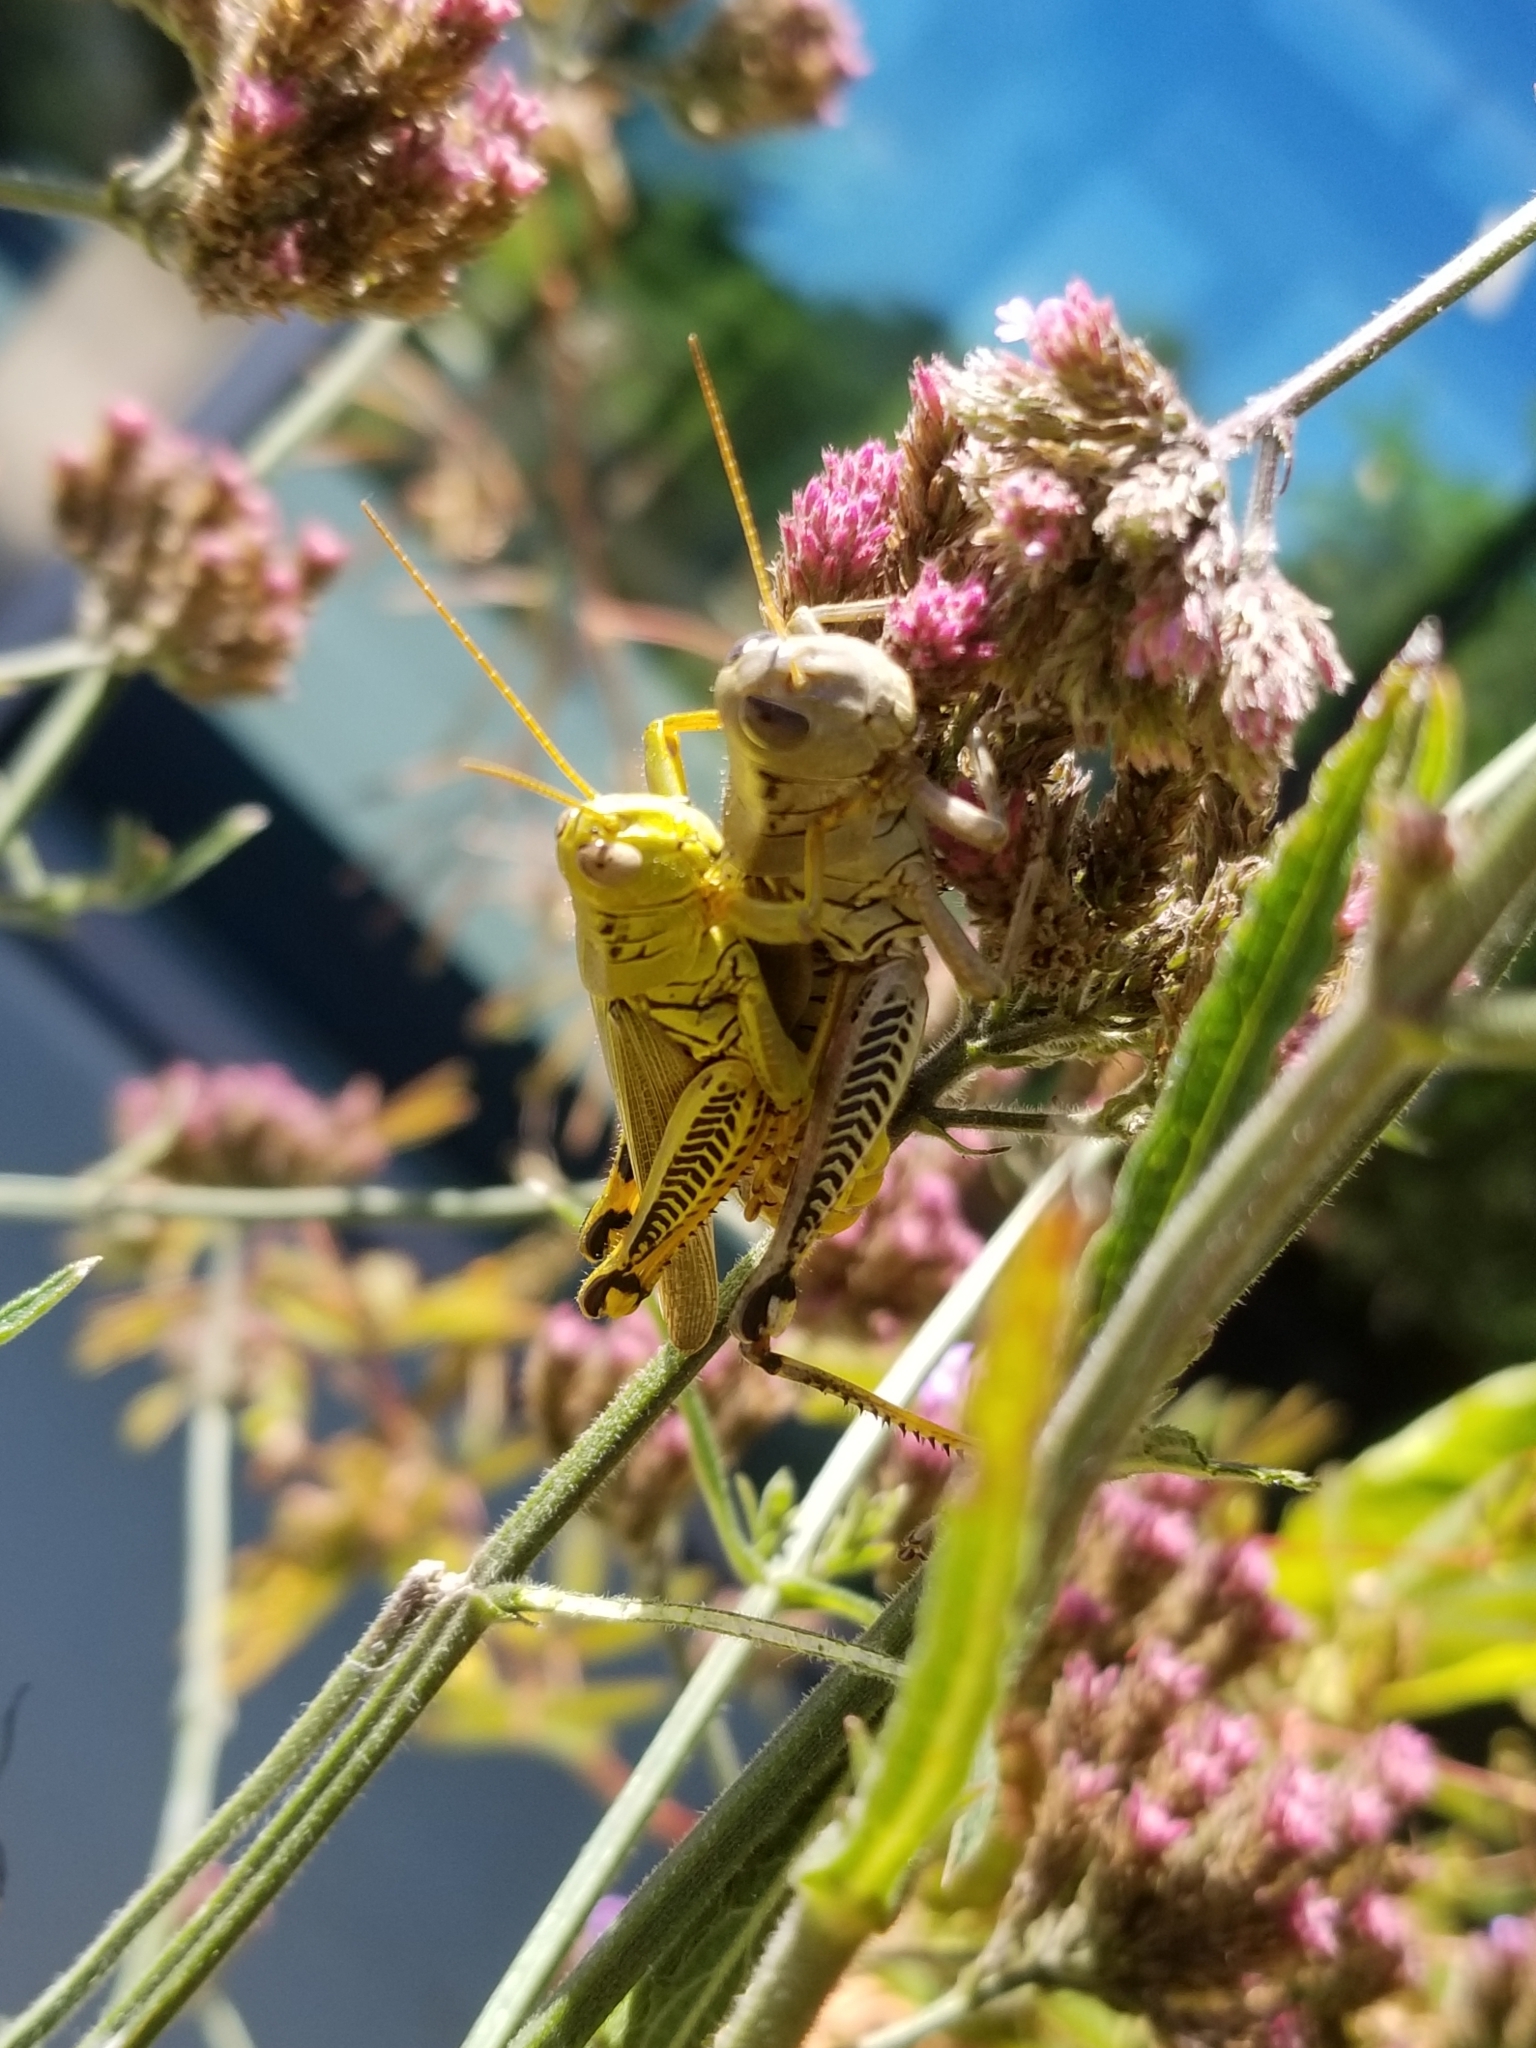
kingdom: Animalia
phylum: Arthropoda
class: Insecta
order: Orthoptera
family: Acrididae
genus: Melanoplus
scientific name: Melanoplus differentialis
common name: Differential grasshopper
